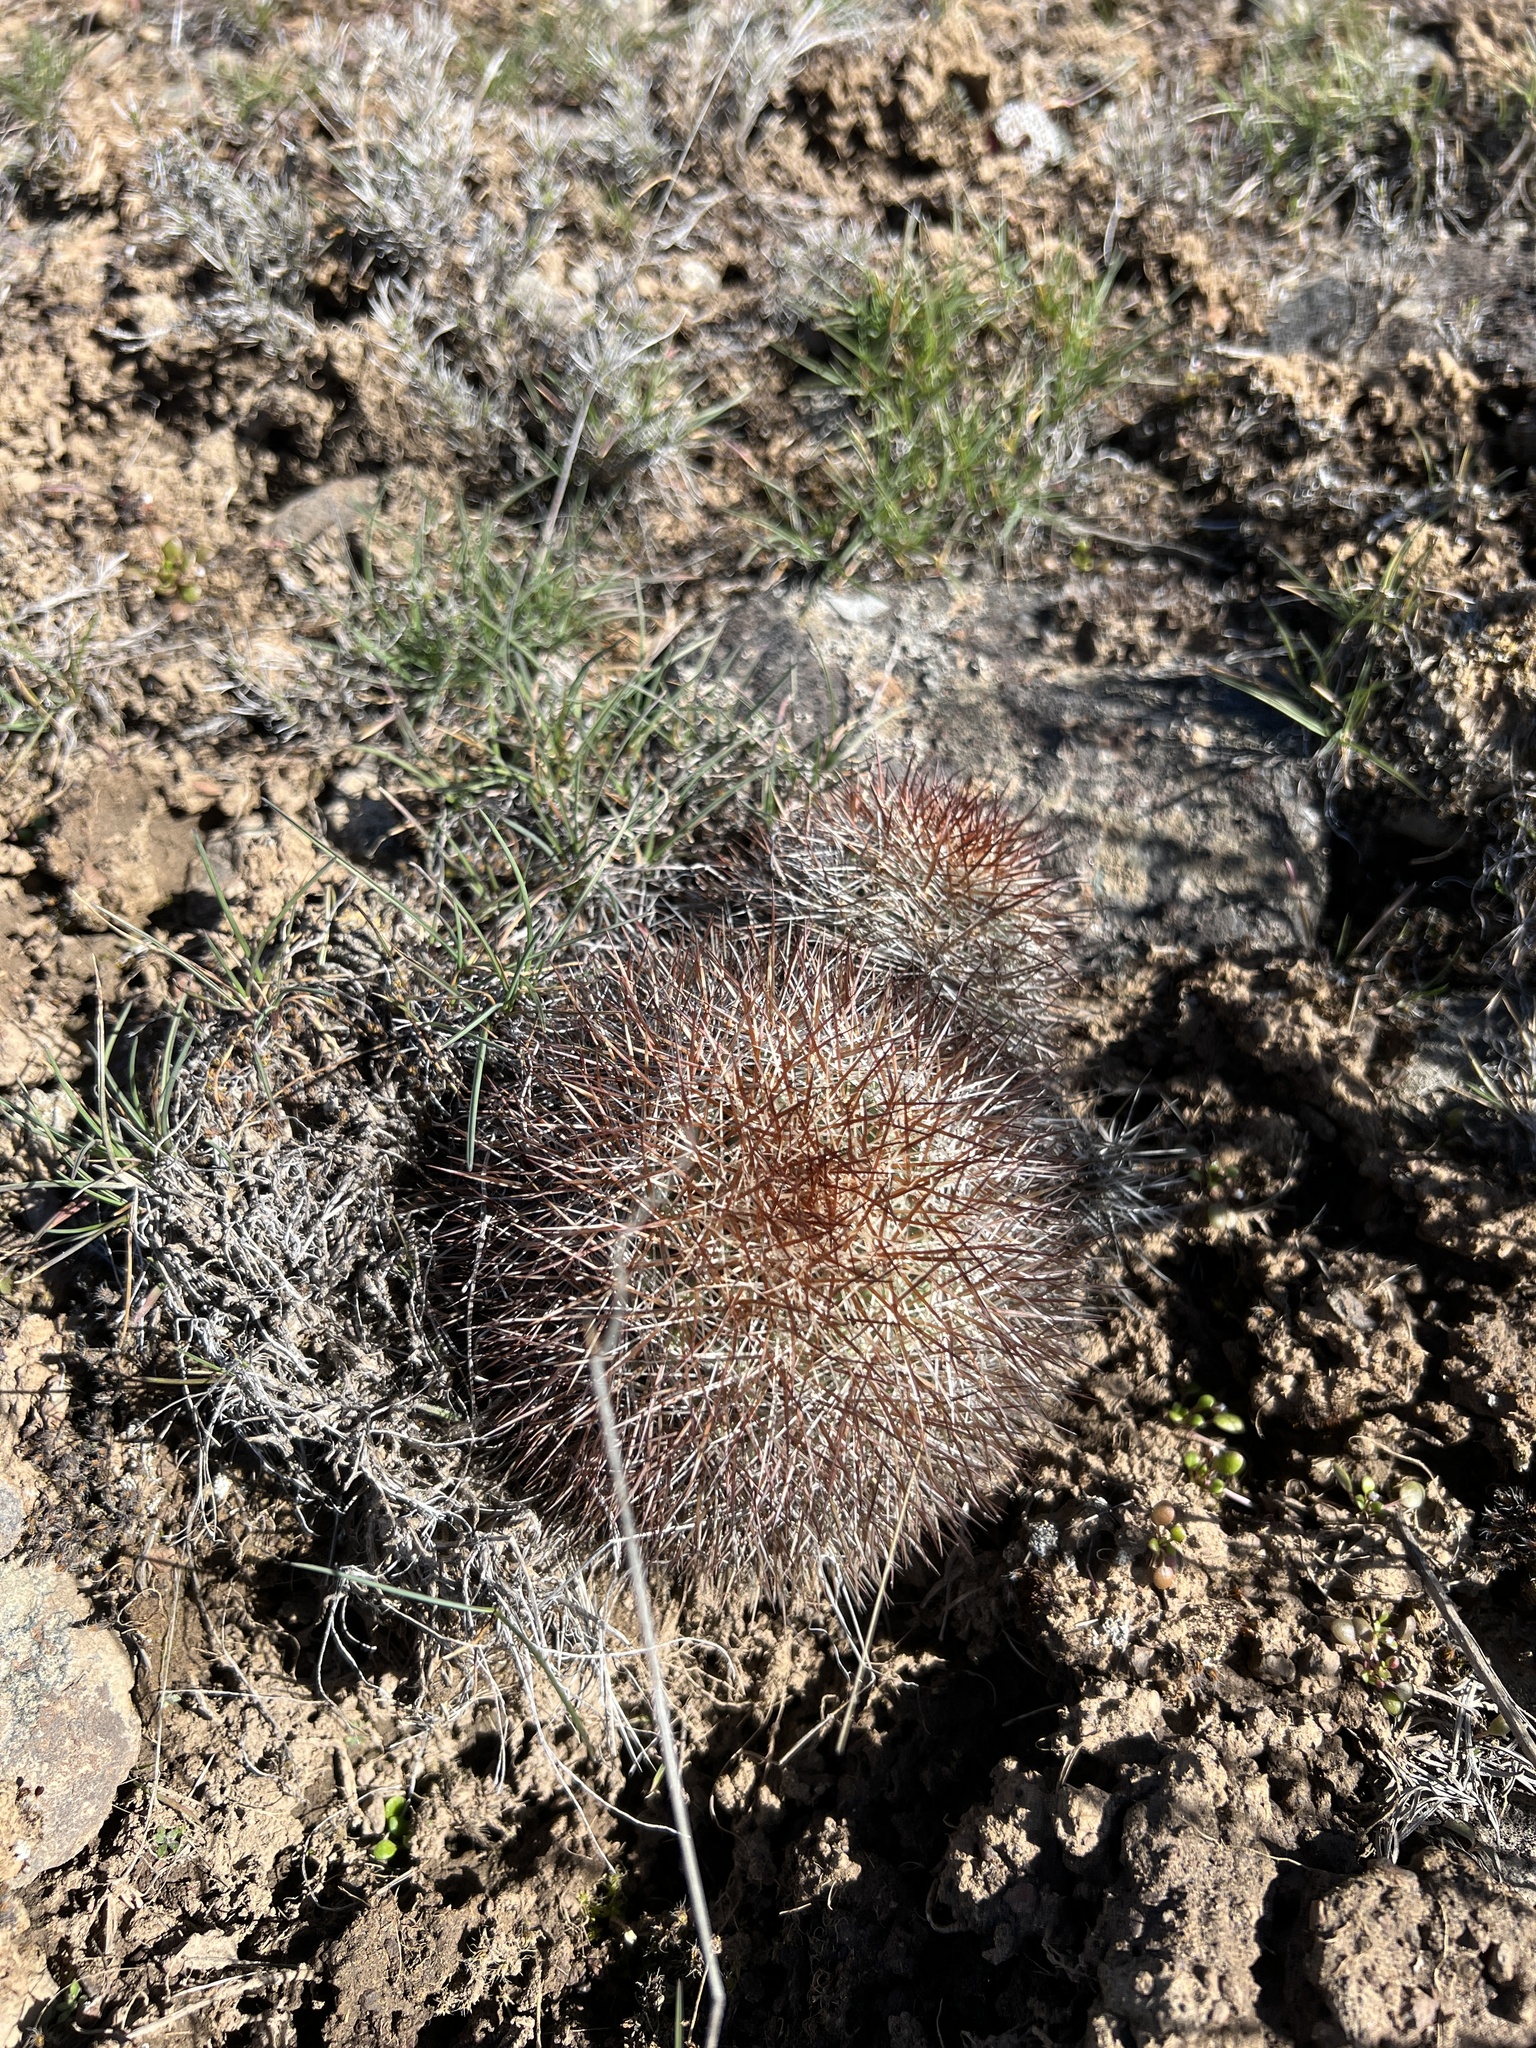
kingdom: Plantae
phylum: Tracheophyta
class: Magnoliopsida
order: Caryophyllales
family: Cactaceae
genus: Pediocactus
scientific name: Pediocactus nigrispinus
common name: Simpson's hedgehog cactus
